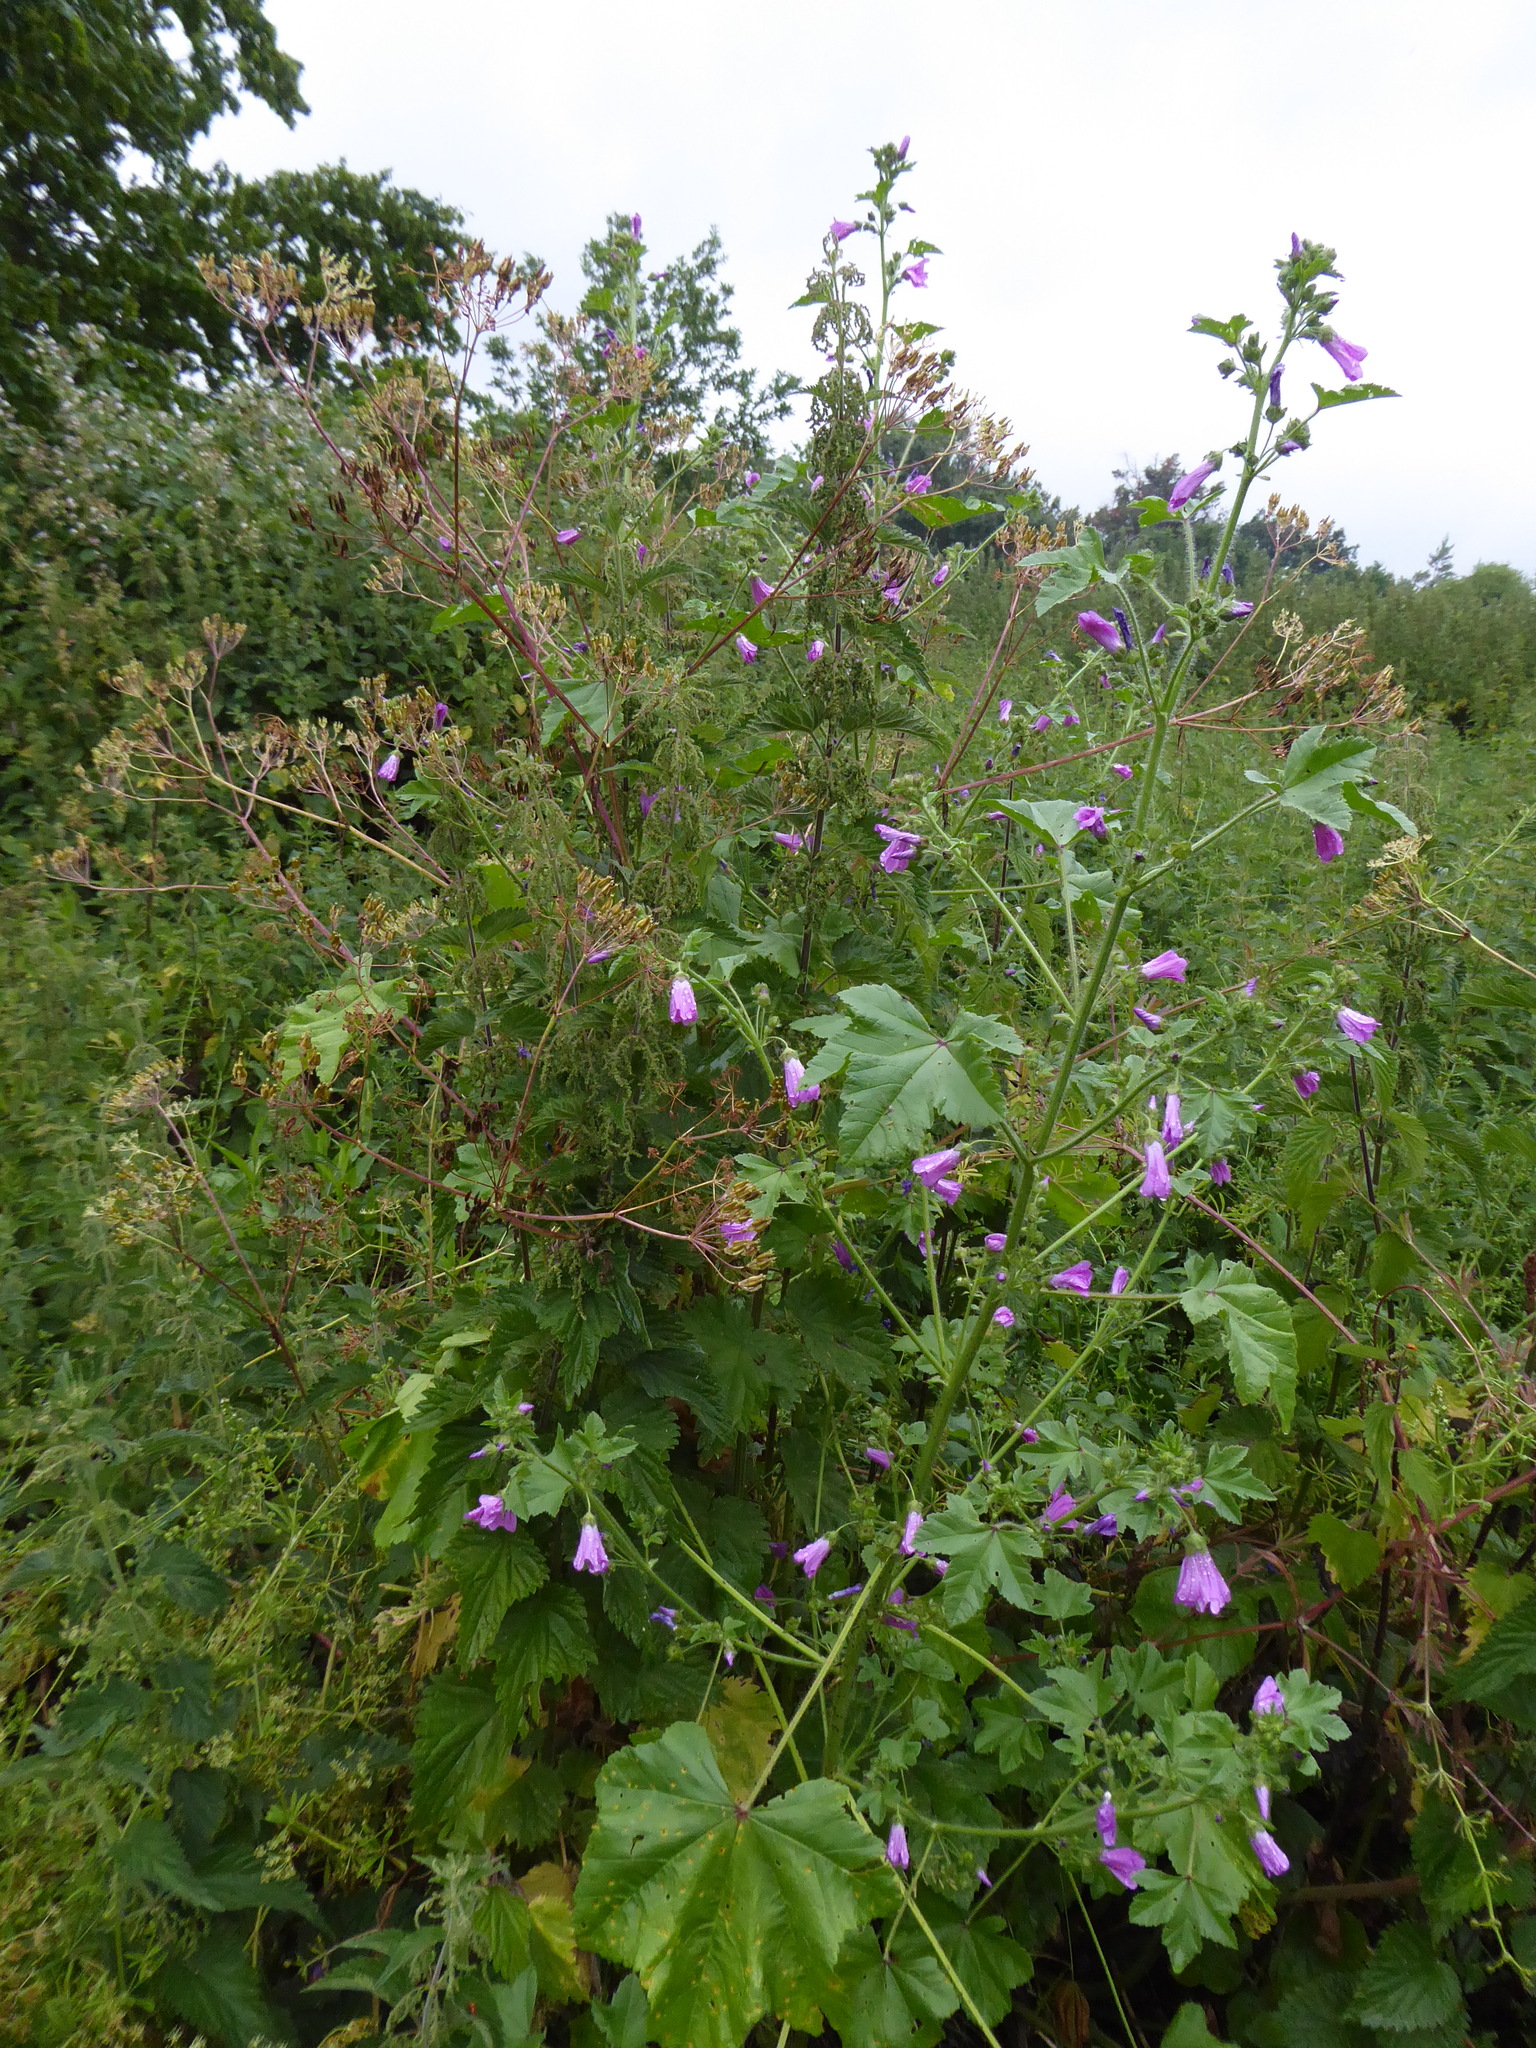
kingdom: Plantae
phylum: Tracheophyta
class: Magnoliopsida
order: Malvales
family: Malvaceae
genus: Malva
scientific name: Malva sylvestris
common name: Common mallow
